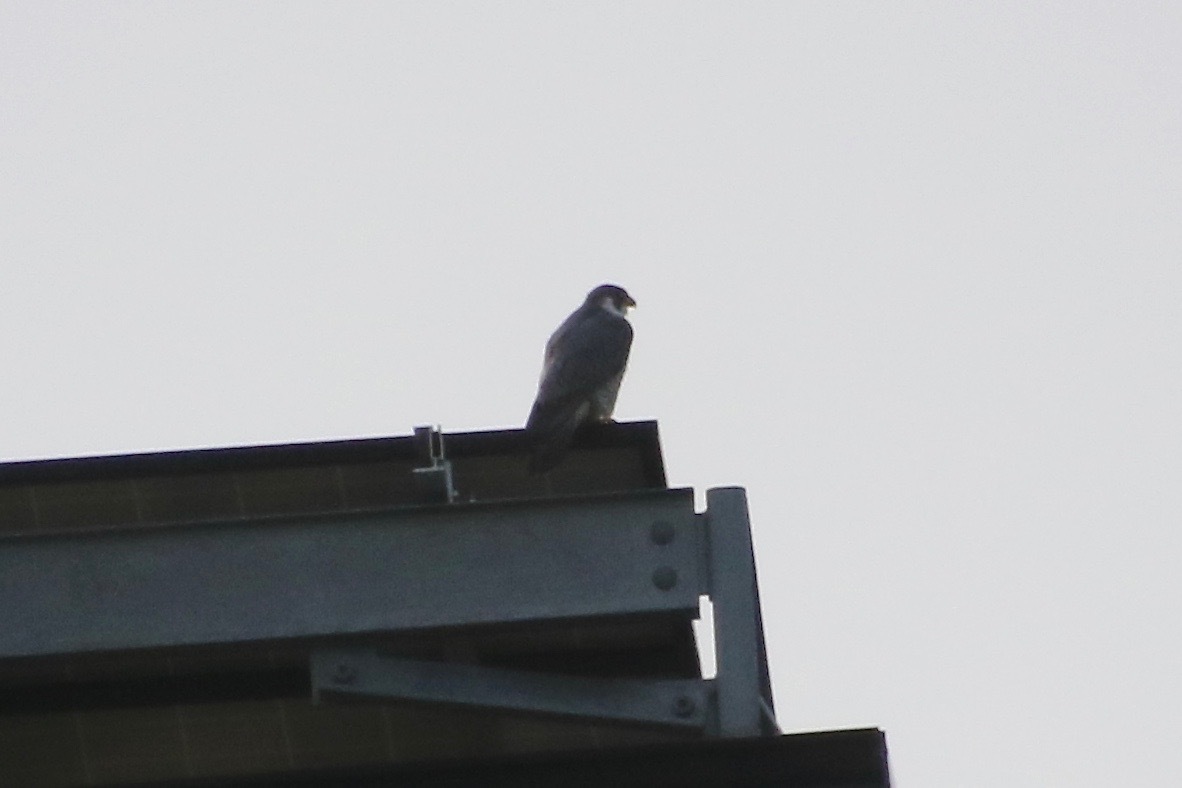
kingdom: Animalia
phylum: Chordata
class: Aves
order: Falconiformes
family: Falconidae
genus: Falco
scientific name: Falco peregrinus
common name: Peregrine falcon
